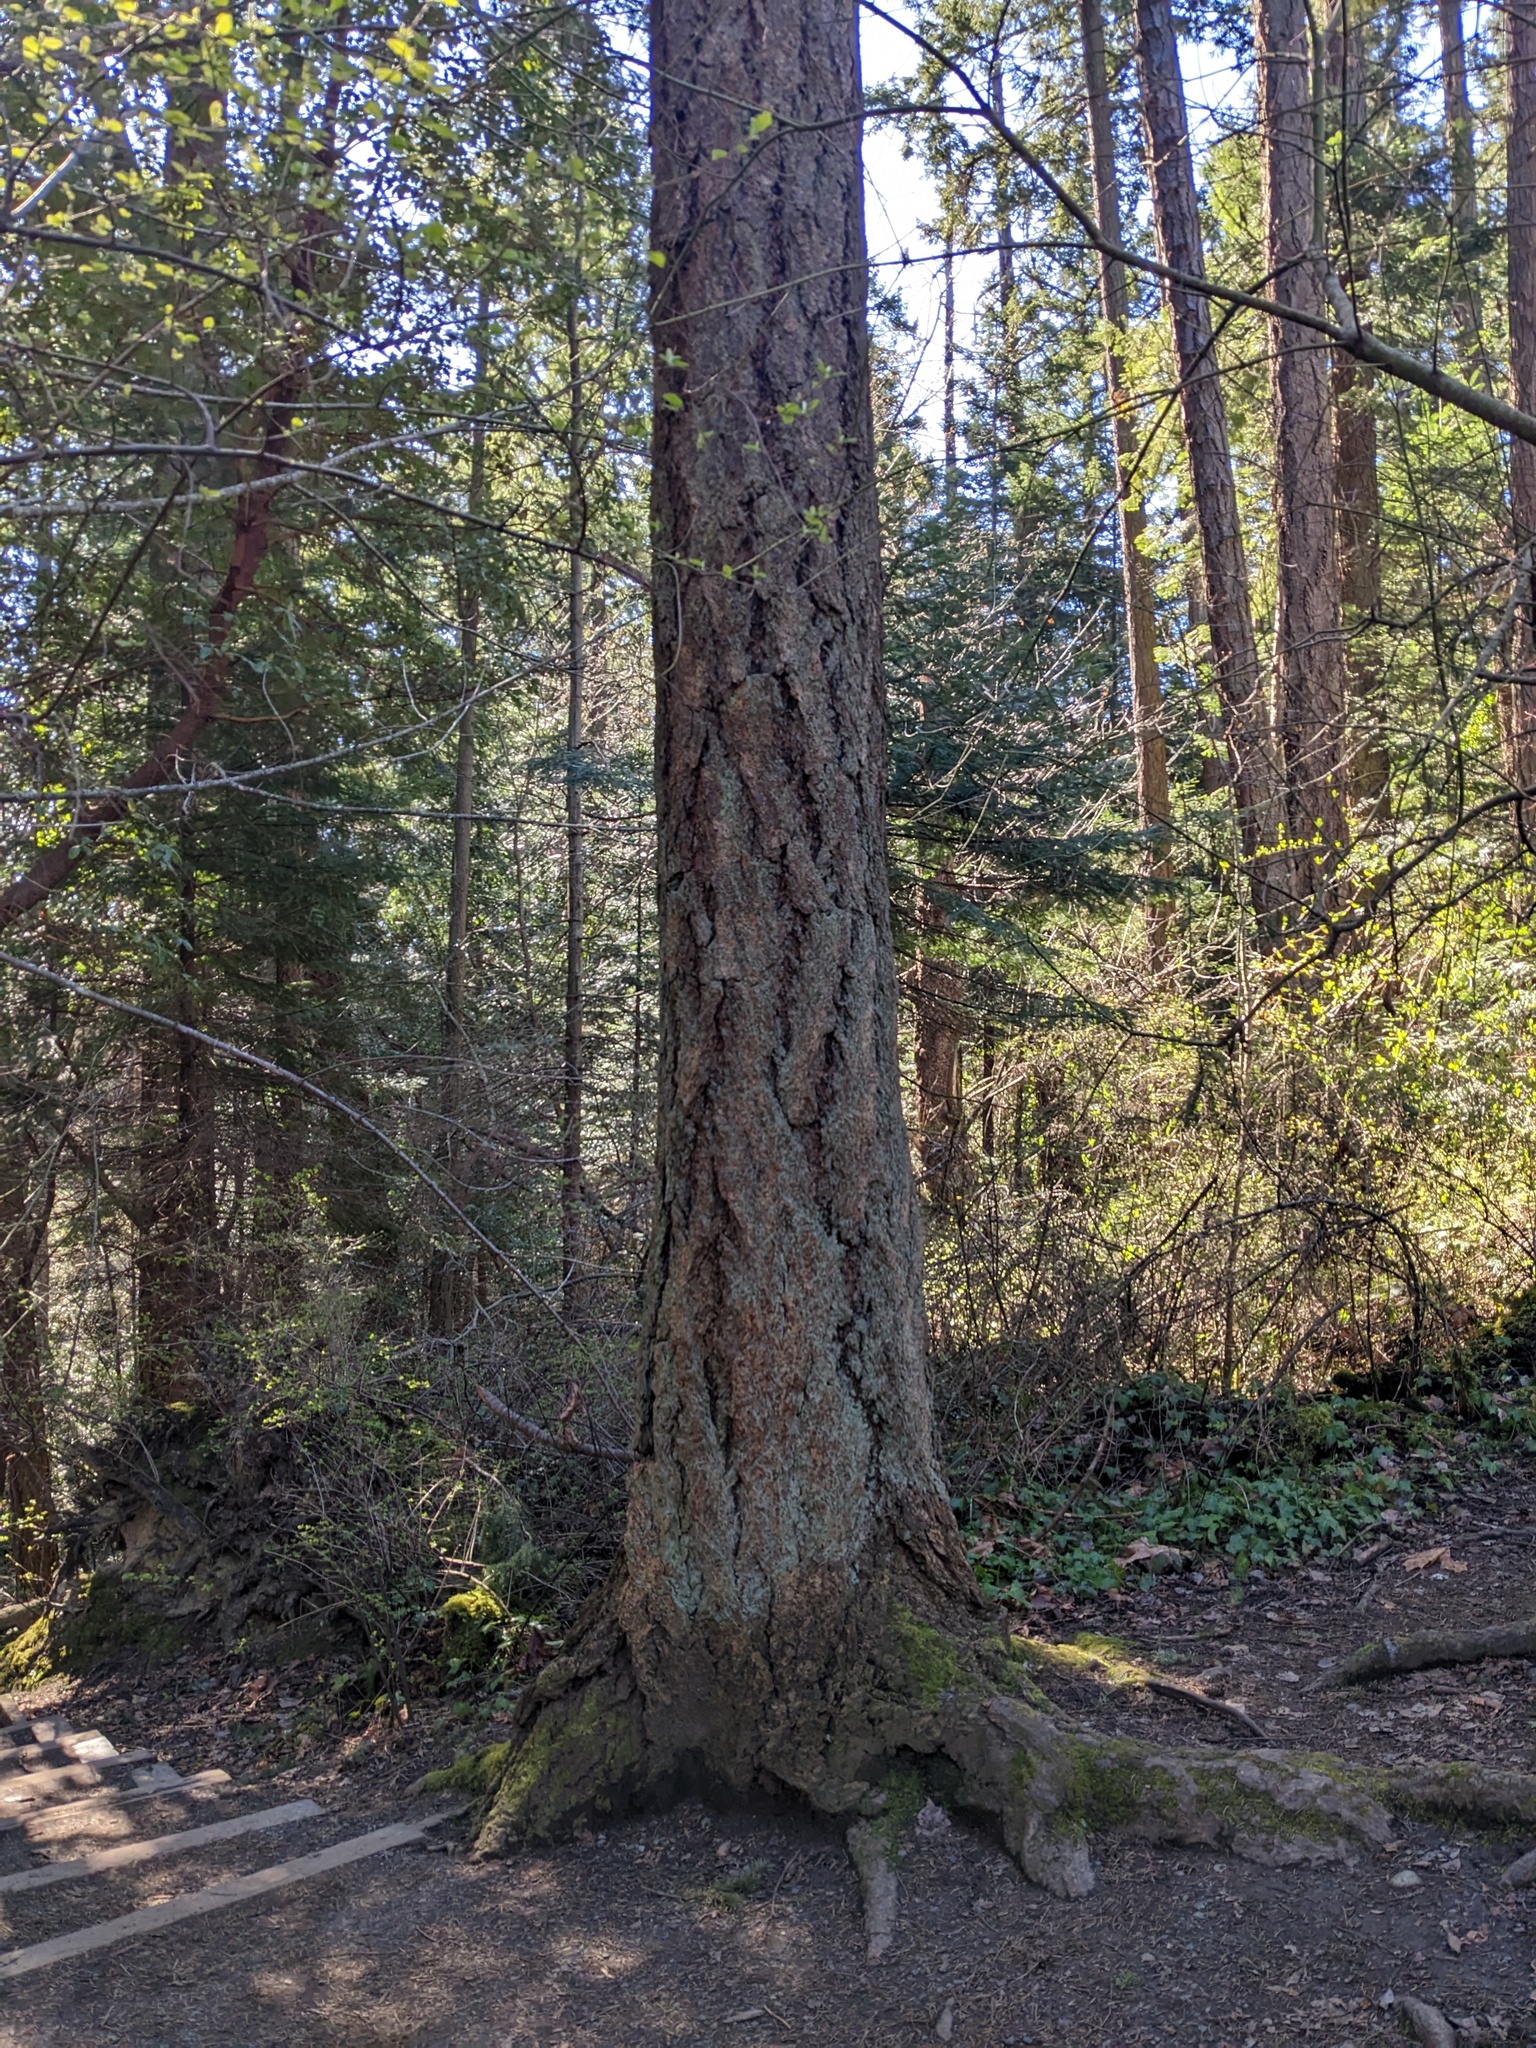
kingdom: Plantae
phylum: Tracheophyta
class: Pinopsida
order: Pinales
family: Pinaceae
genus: Pseudotsuga
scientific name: Pseudotsuga menziesii
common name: Douglas fir
